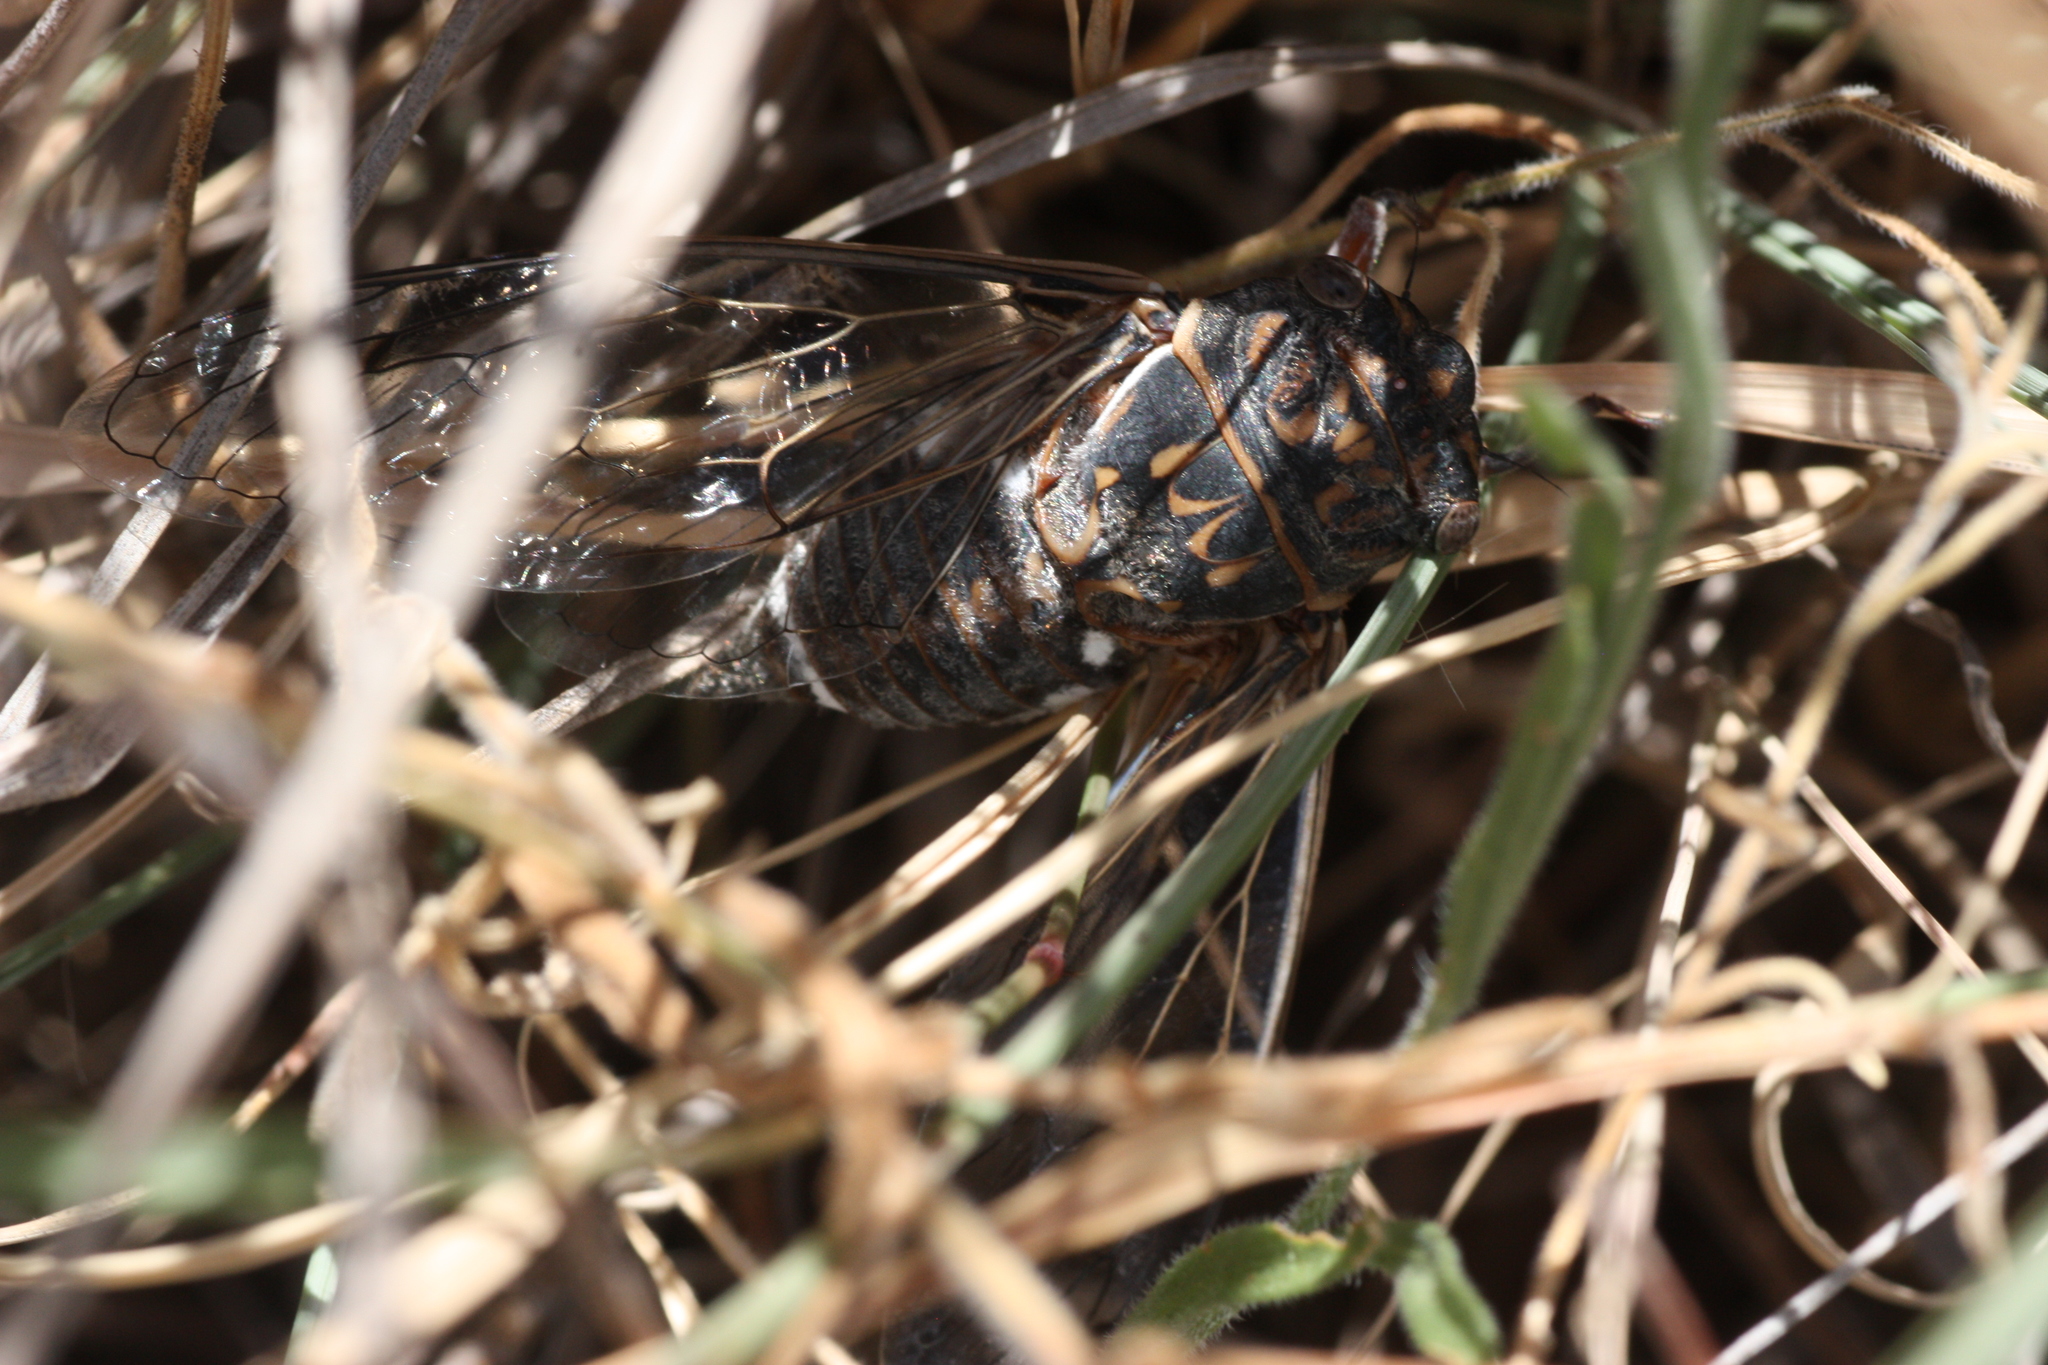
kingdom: Animalia
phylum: Arthropoda
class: Insecta
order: Hemiptera
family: Cicadidae
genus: Hadoa
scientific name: Hadoa inaudita
